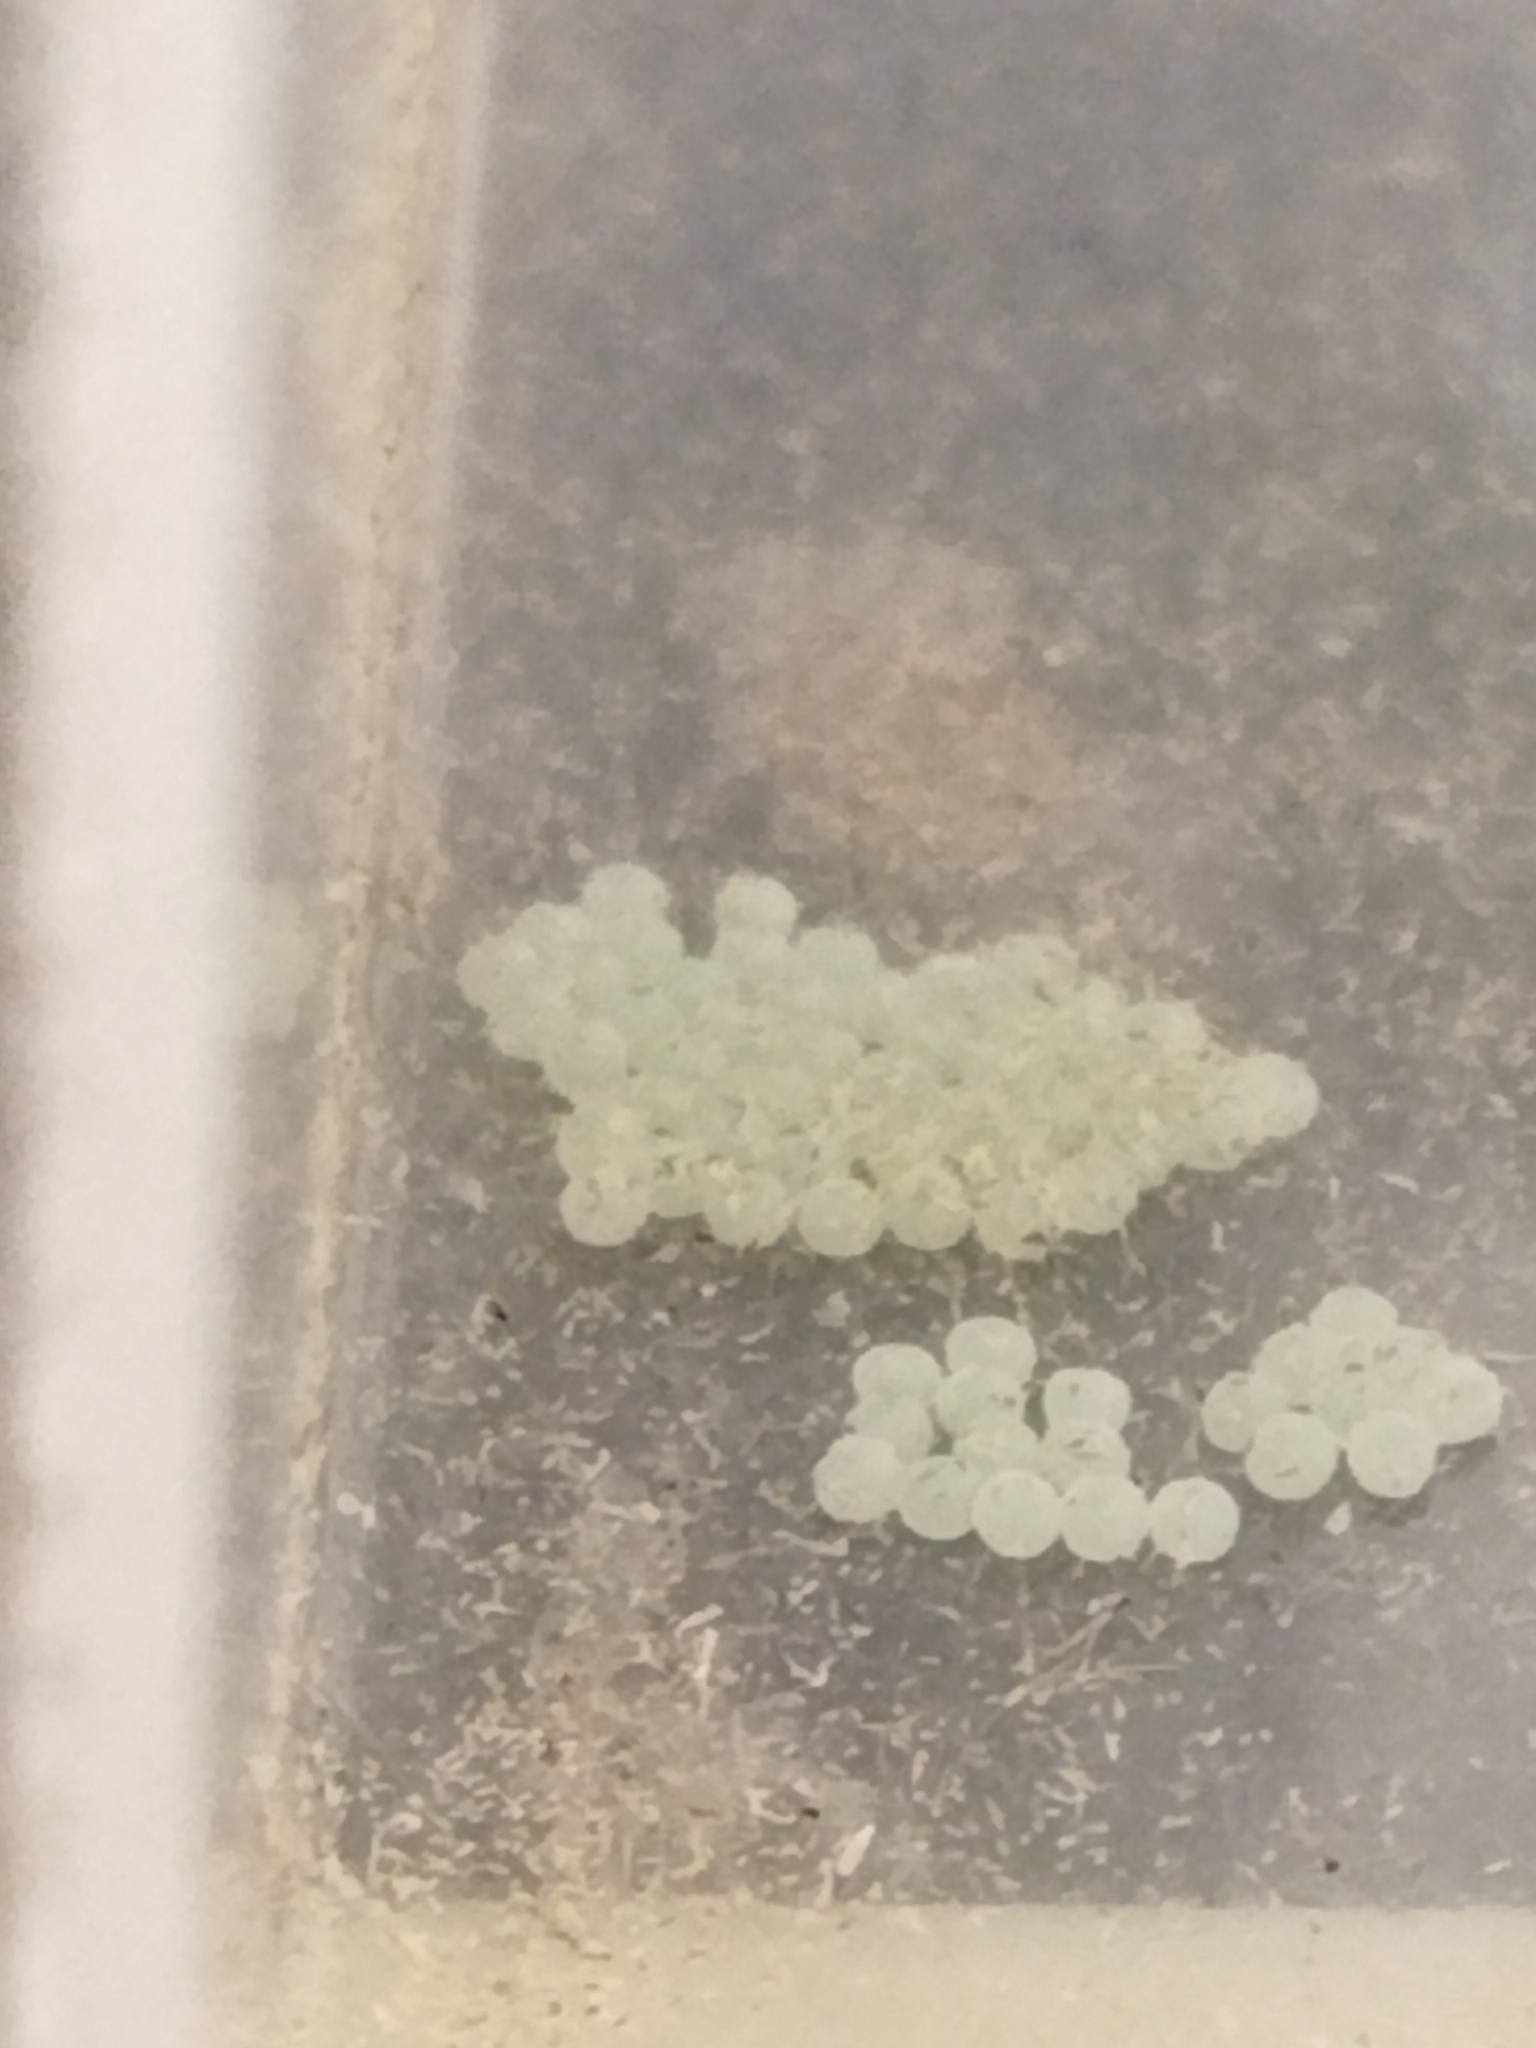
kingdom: Animalia
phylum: Arthropoda
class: Insecta
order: Lepidoptera
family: Erebidae
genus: Lithosia
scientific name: Lithosia quadra
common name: Four-spotted footman
